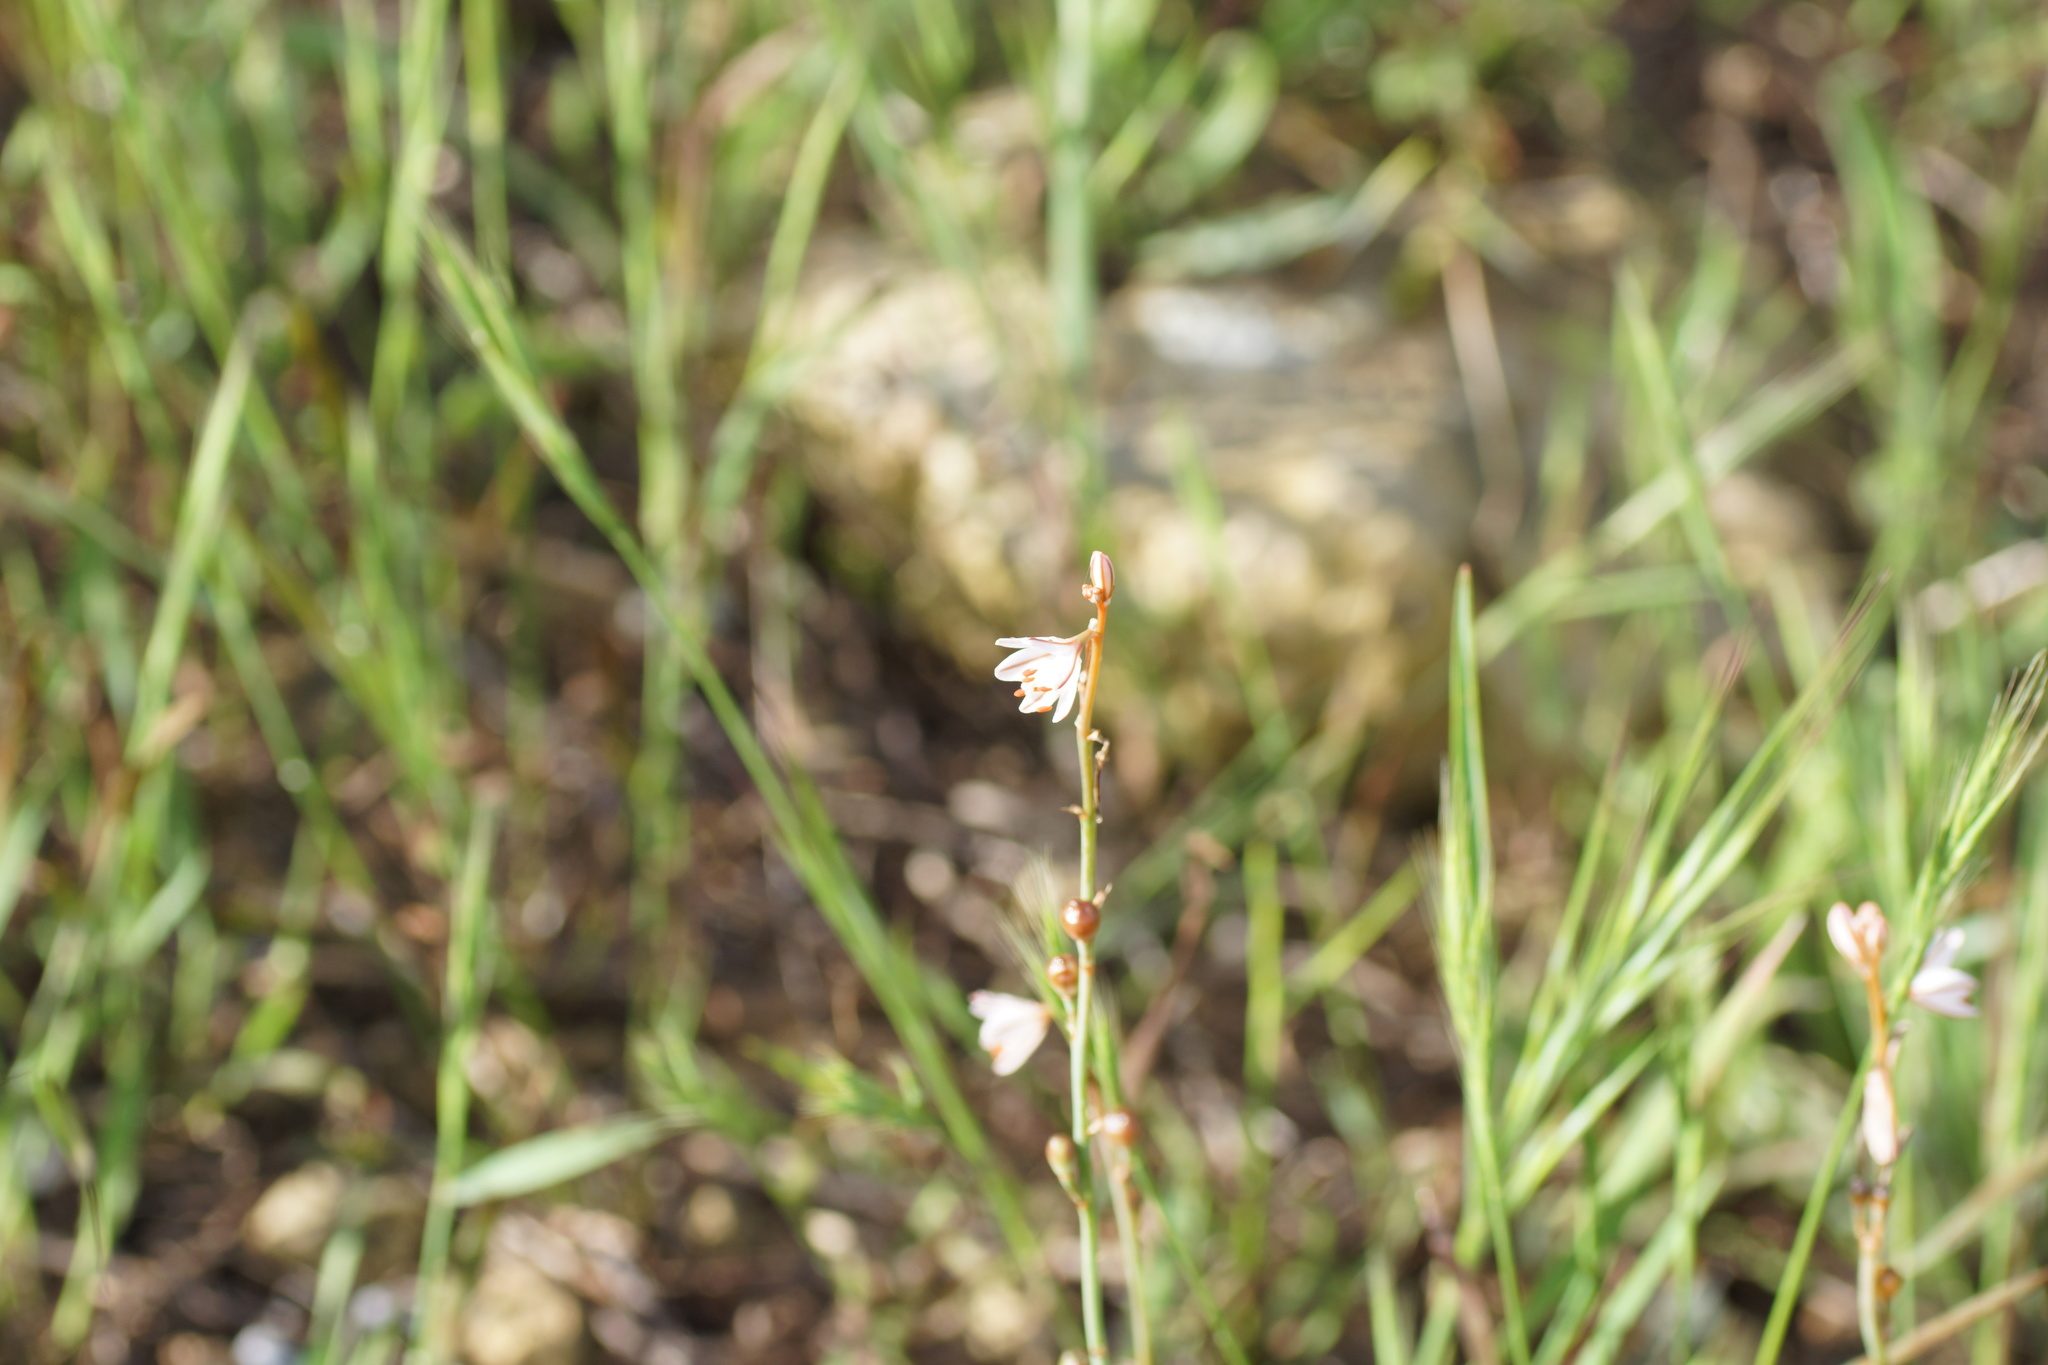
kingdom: Plantae
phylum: Tracheophyta
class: Liliopsida
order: Asparagales
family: Asphodelaceae
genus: Asphodelus
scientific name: Asphodelus fistulosus
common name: Onionweed
